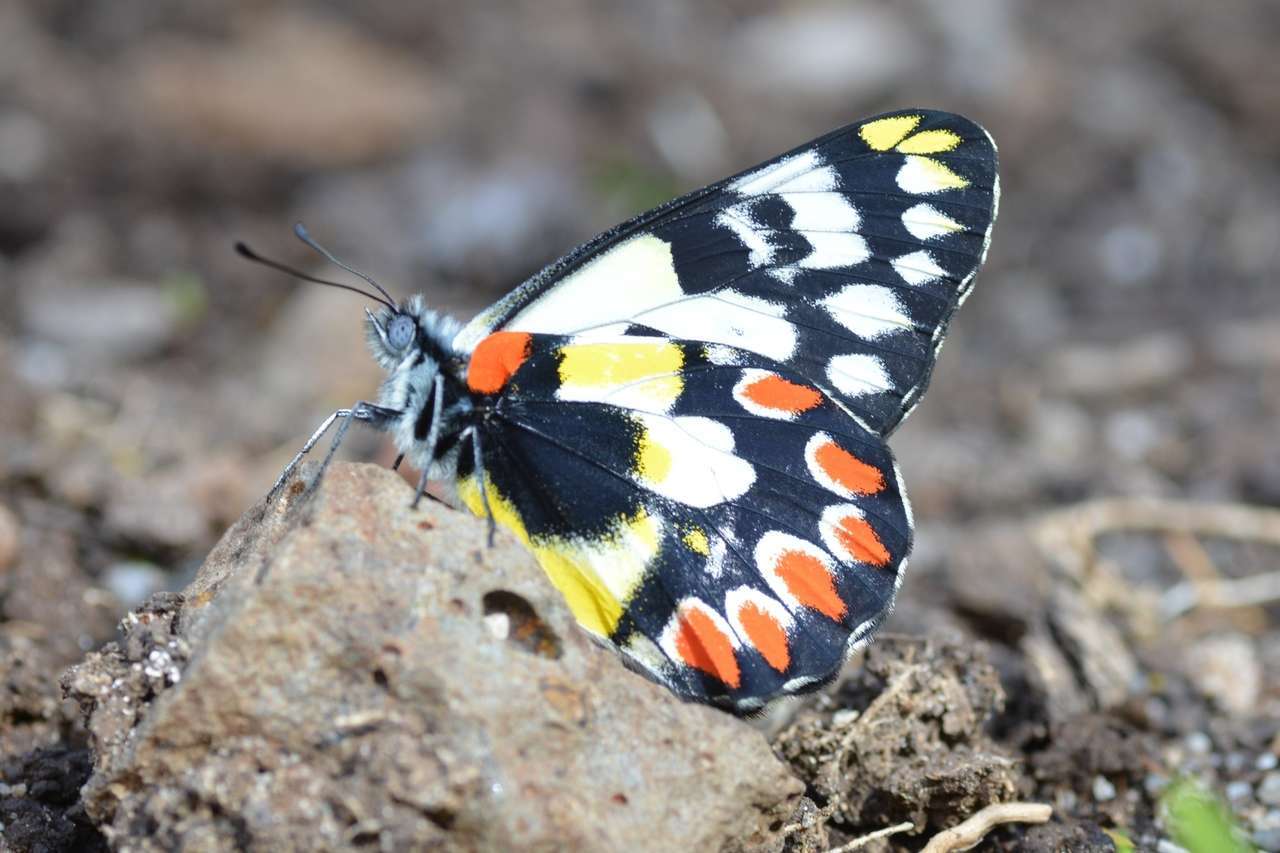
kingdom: Animalia
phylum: Arthropoda
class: Insecta
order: Lepidoptera
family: Pieridae
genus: Delias
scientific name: Delias aganippe
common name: Red-spotted jezebel
